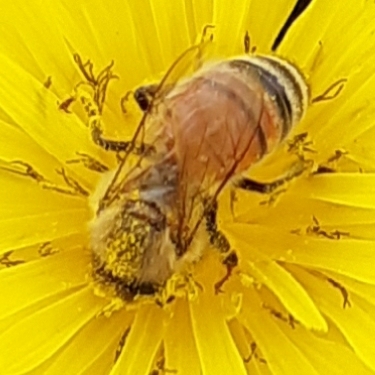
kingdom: Animalia
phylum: Arthropoda
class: Insecta
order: Hymenoptera
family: Apidae
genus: Apis
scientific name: Apis mellifera
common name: Honey bee
